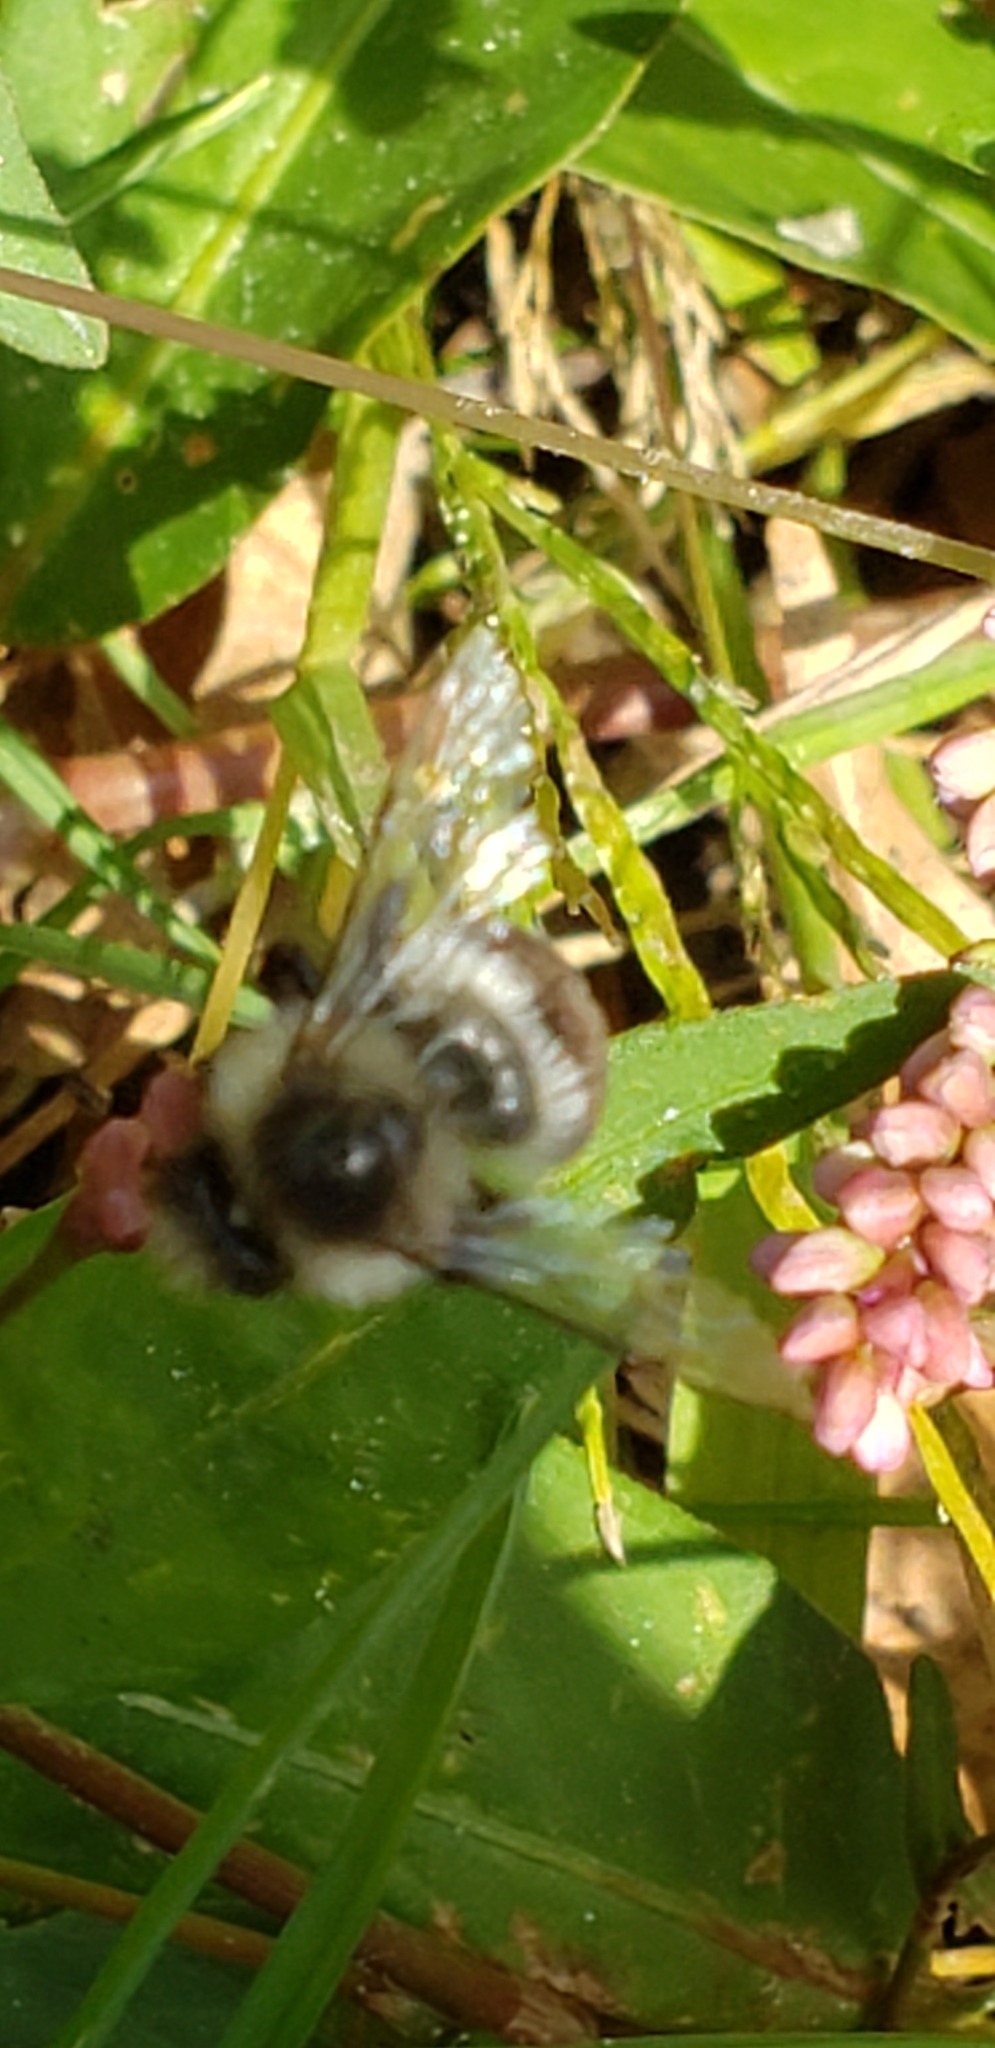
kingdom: Animalia
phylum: Arthropoda
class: Insecta
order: Hymenoptera
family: Apidae
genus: Bombus
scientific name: Bombus impatiens
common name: Common eastern bumble bee
